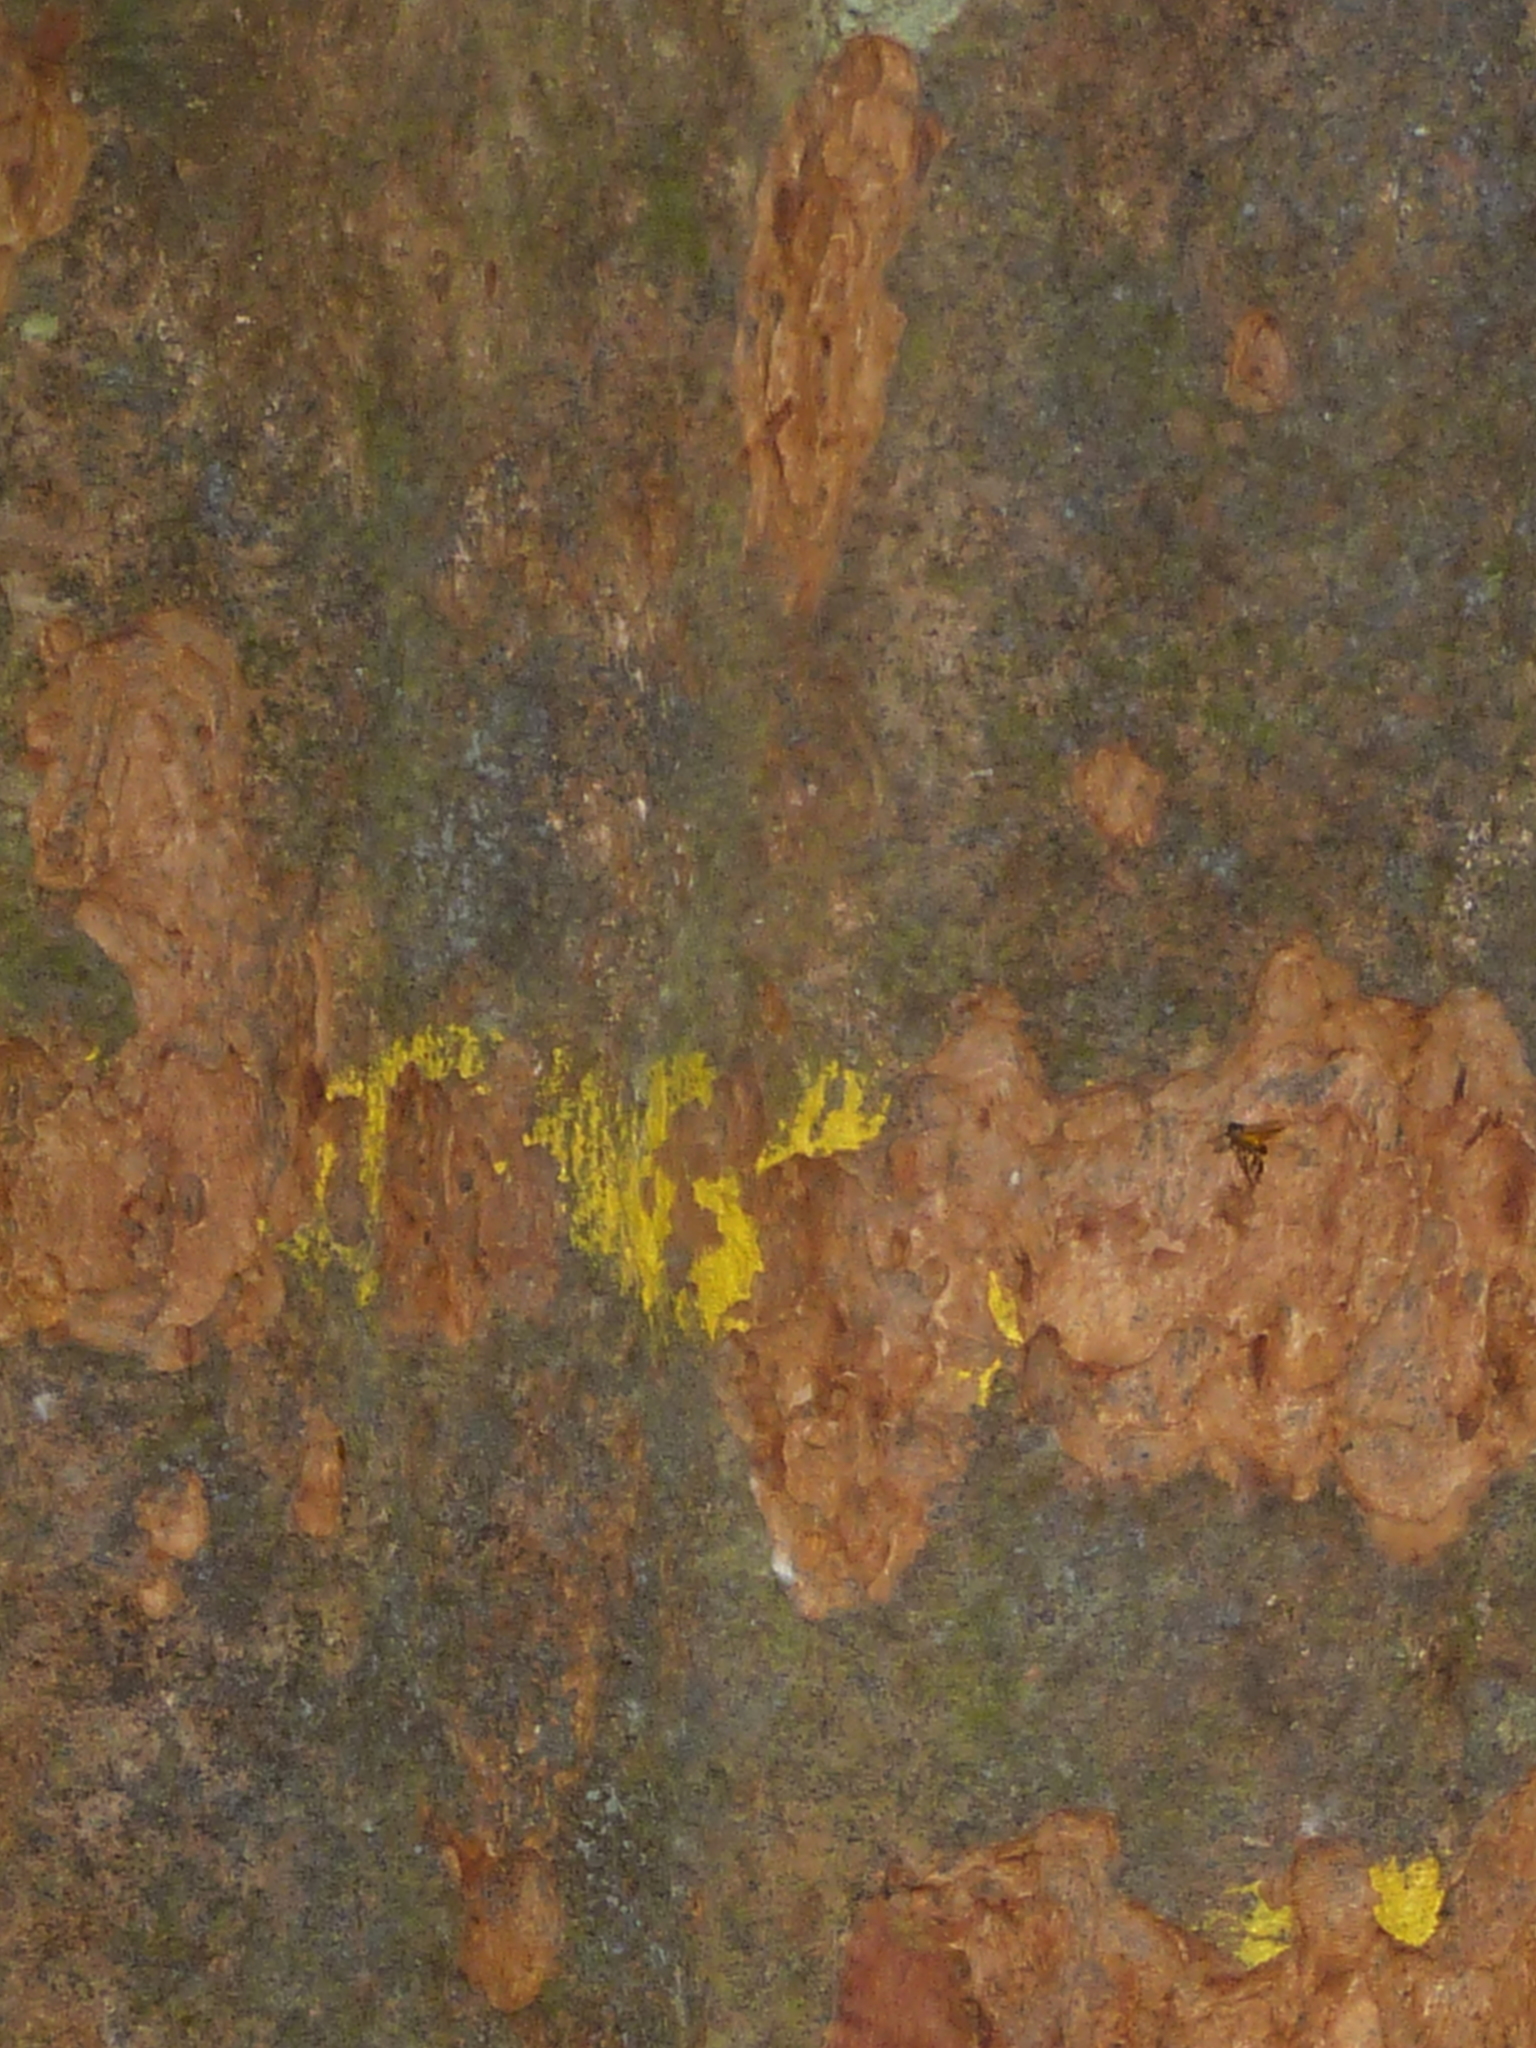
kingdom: Plantae
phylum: Tracheophyta
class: Magnoliopsida
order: Fabales
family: Fabaceae
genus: Inga
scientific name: Inga alba
